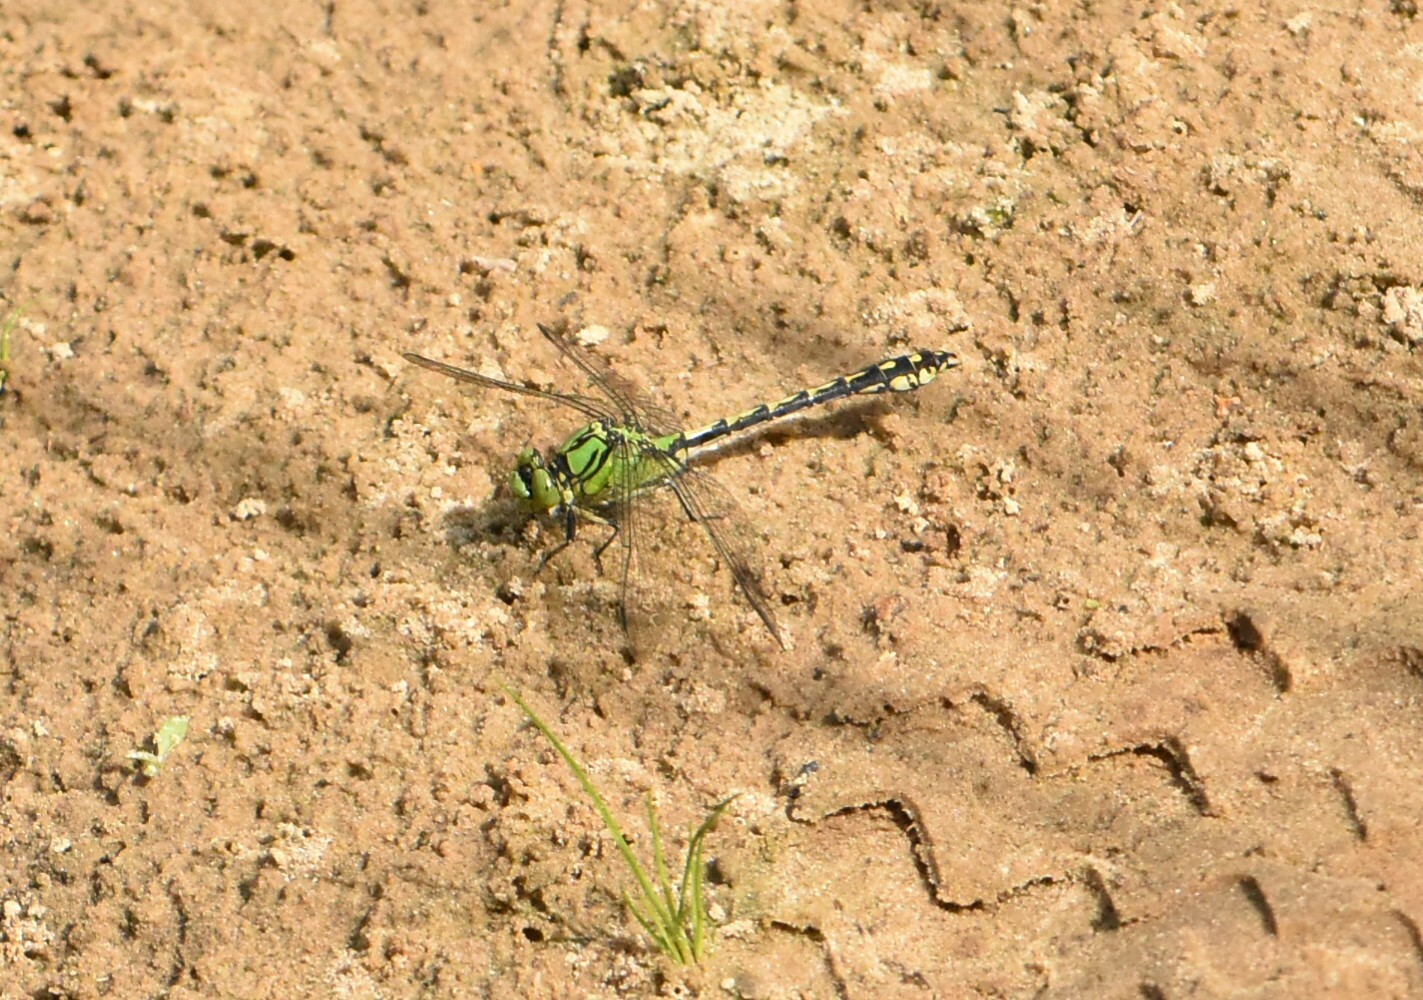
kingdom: Animalia
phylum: Arthropoda
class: Insecta
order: Odonata
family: Gomphidae
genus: Ophiogomphus
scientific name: Ophiogomphus cecilia
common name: Green snaketail
